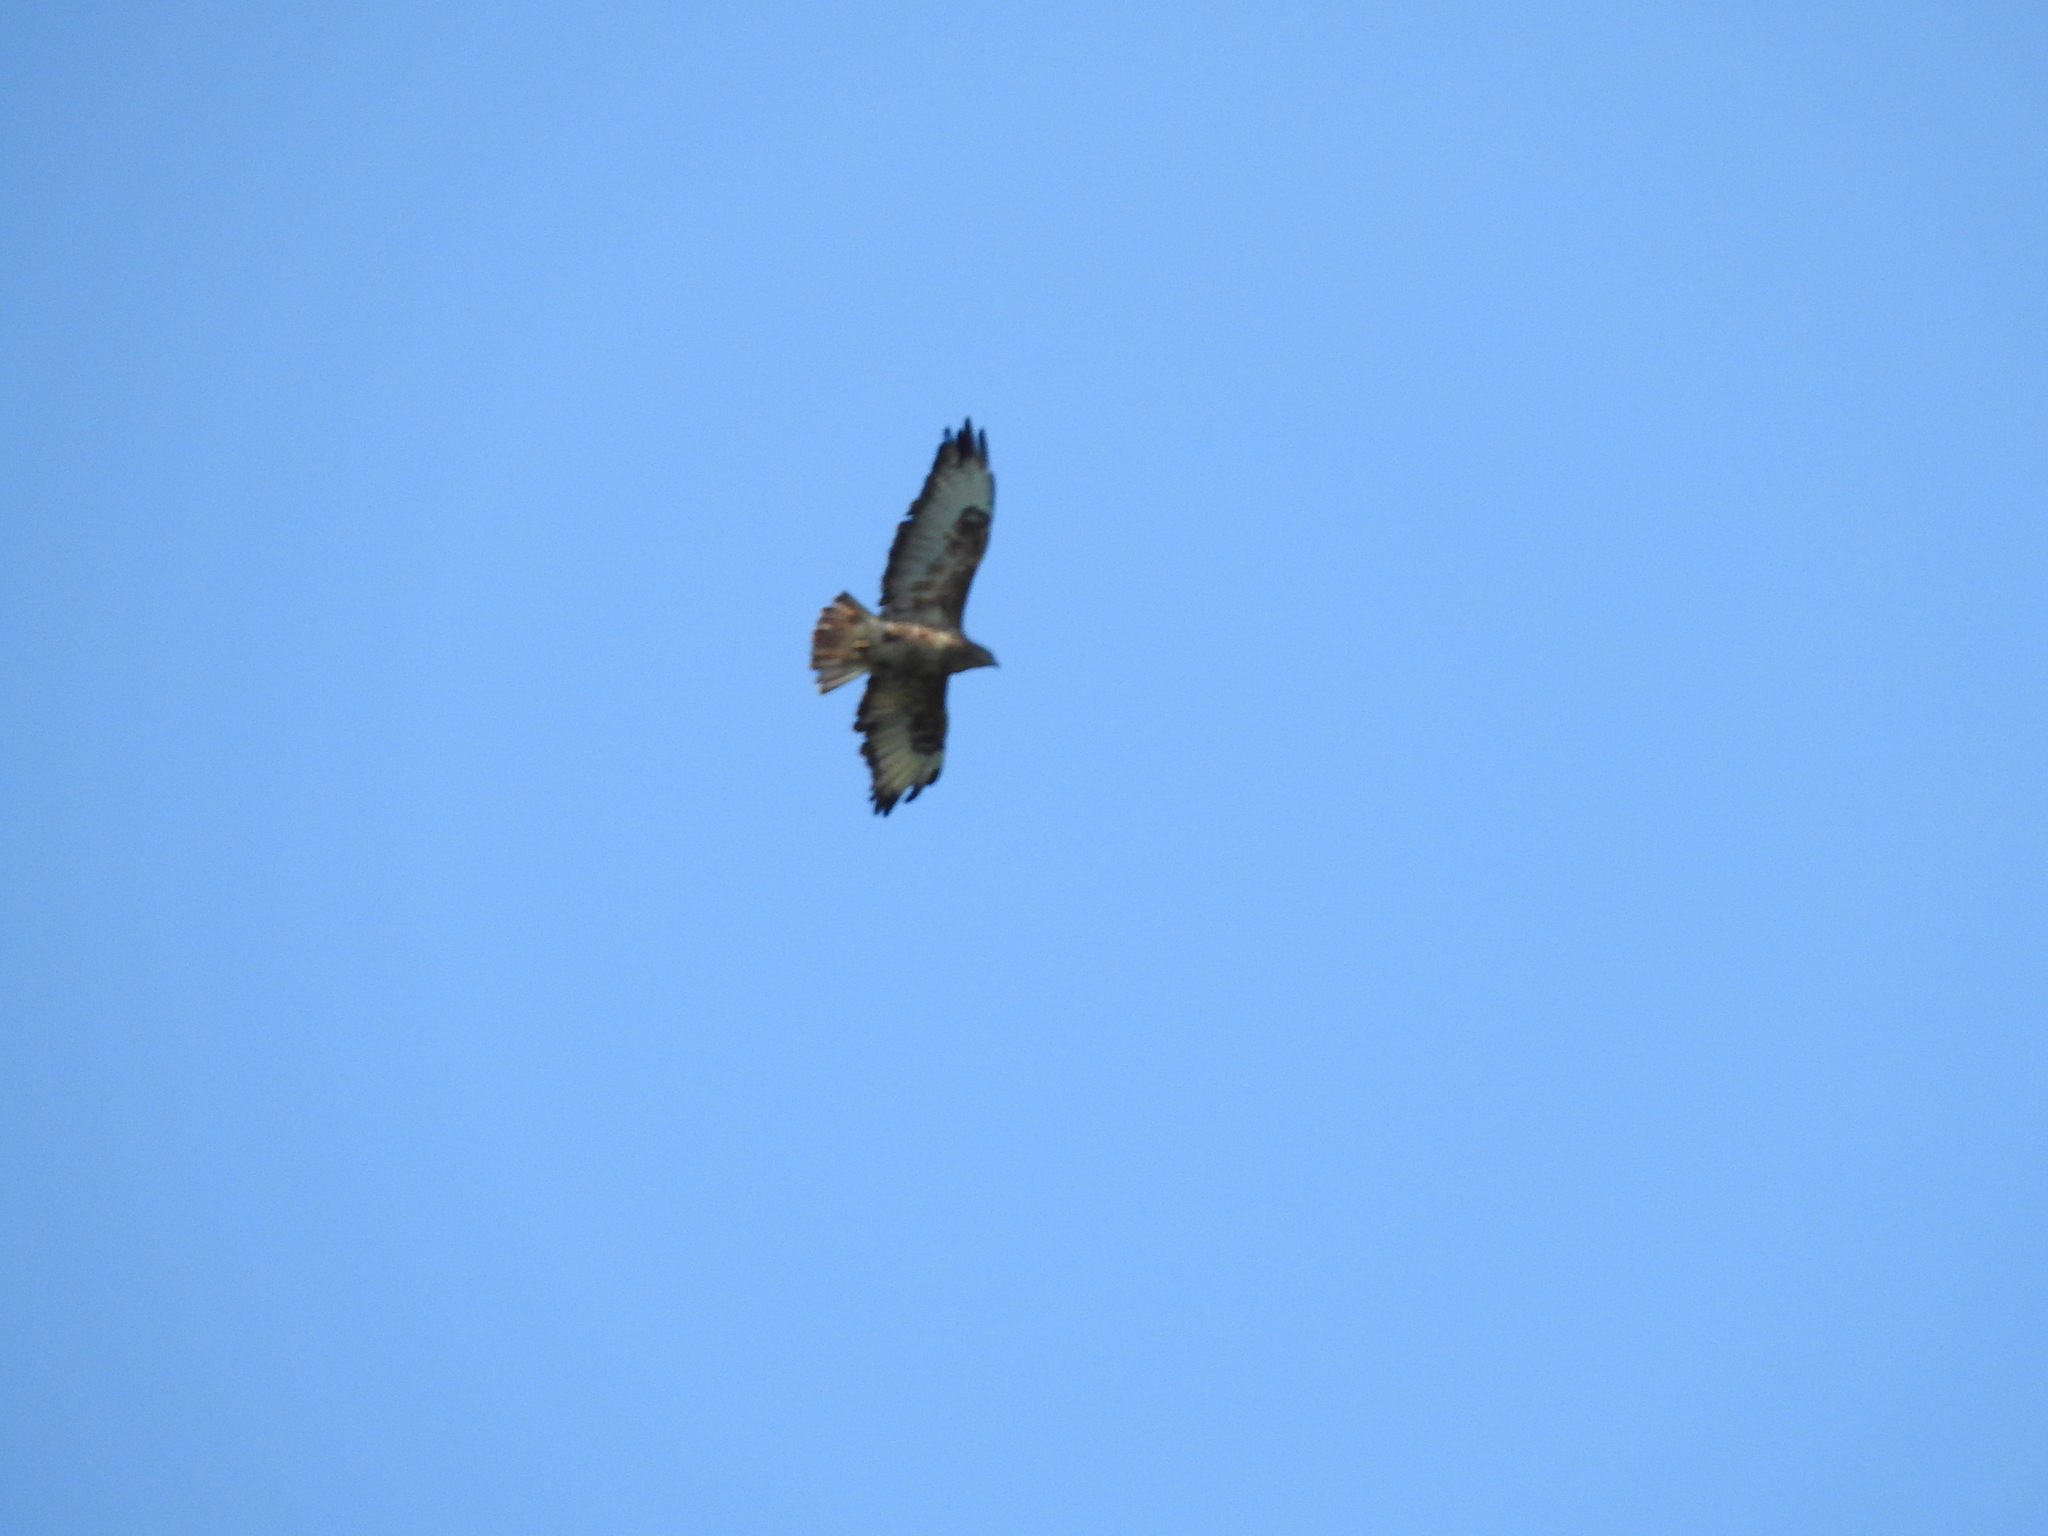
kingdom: Animalia
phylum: Chordata
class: Aves
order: Accipitriformes
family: Accipitridae
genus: Buteo
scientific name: Buteo buteo
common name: Common buzzard
